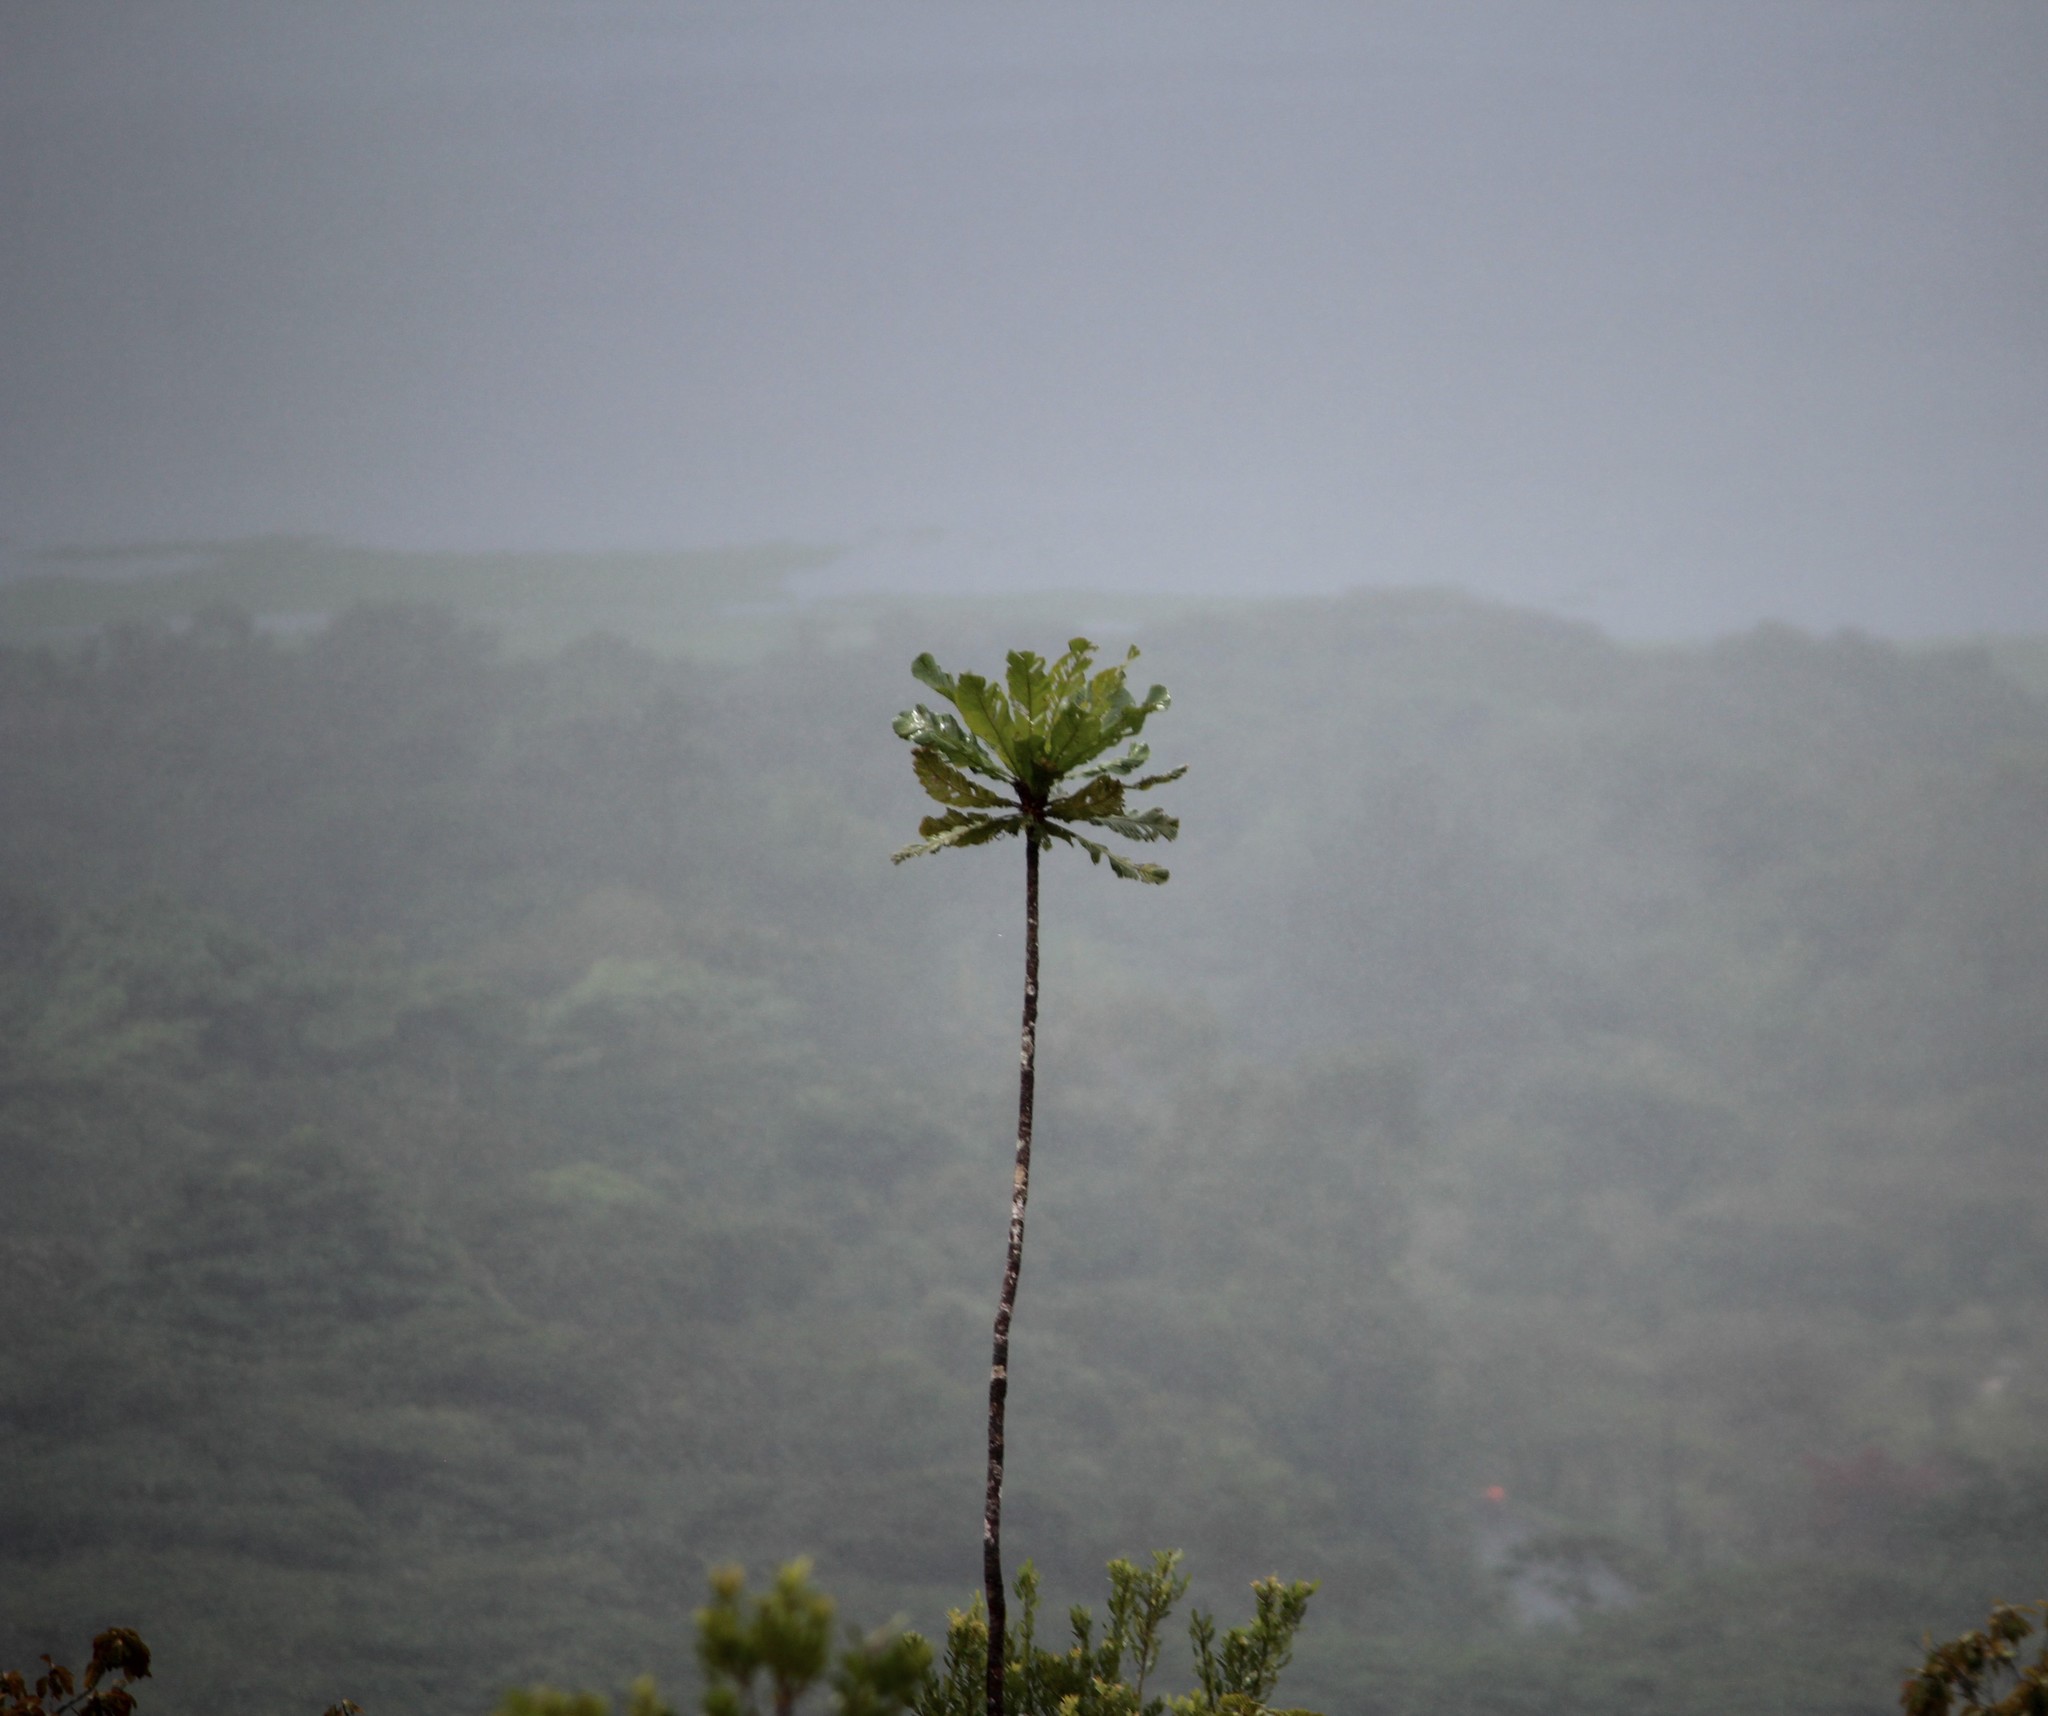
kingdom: Plantae
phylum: Tracheophyta
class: Magnoliopsida
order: Malpighiales
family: Ochnaceae
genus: Cespedesia
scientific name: Cespedesia spathulata
